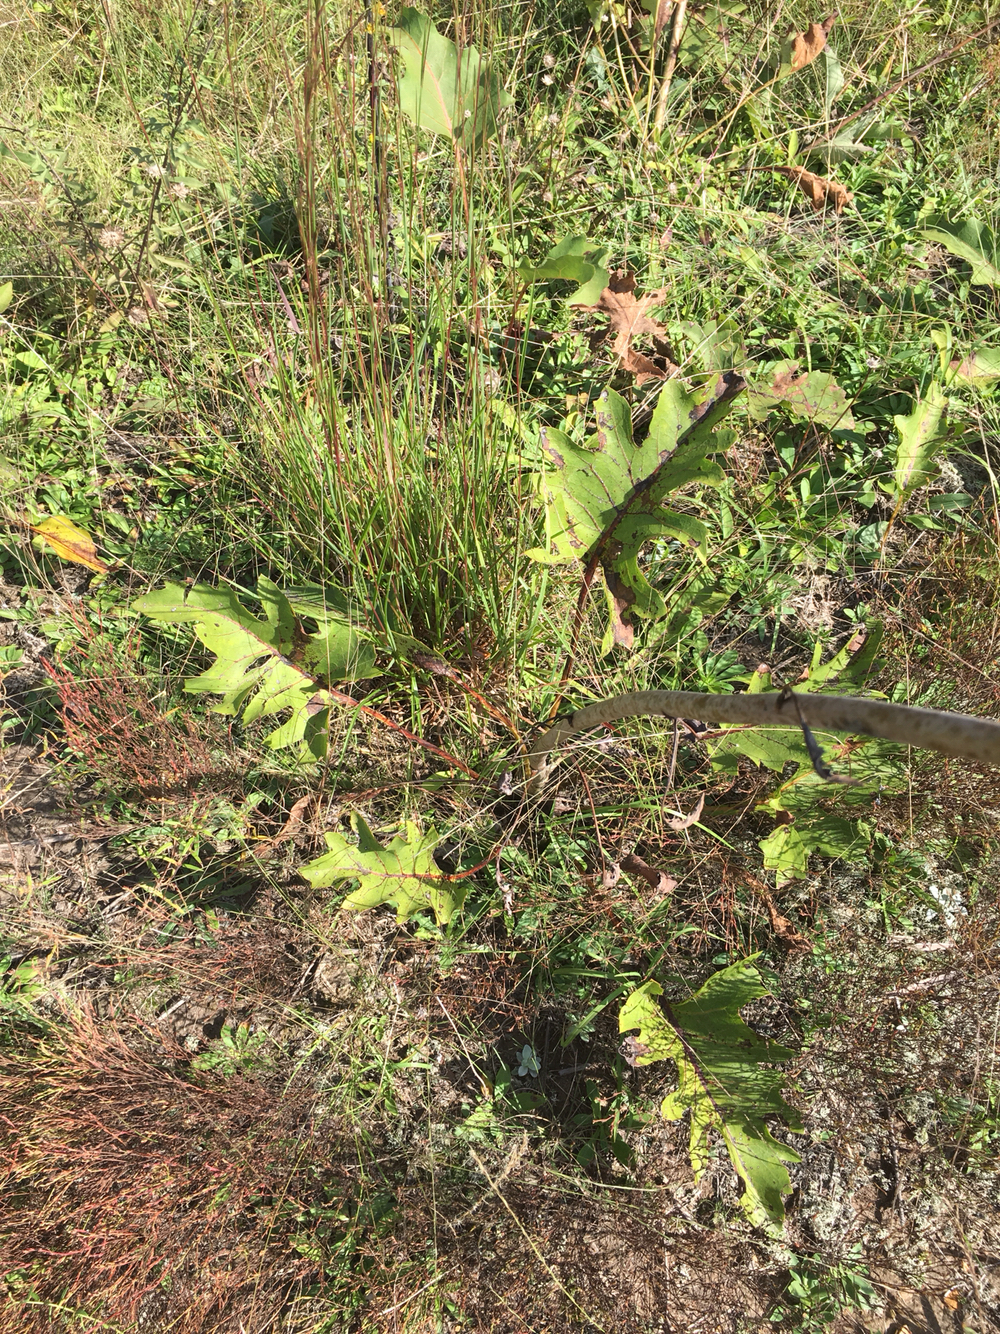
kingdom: Plantae
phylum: Tracheophyta
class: Magnoliopsida
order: Asterales
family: Asteraceae
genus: Silphium
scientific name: Silphium compositum
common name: Lesser basal-leaf rosinweed
